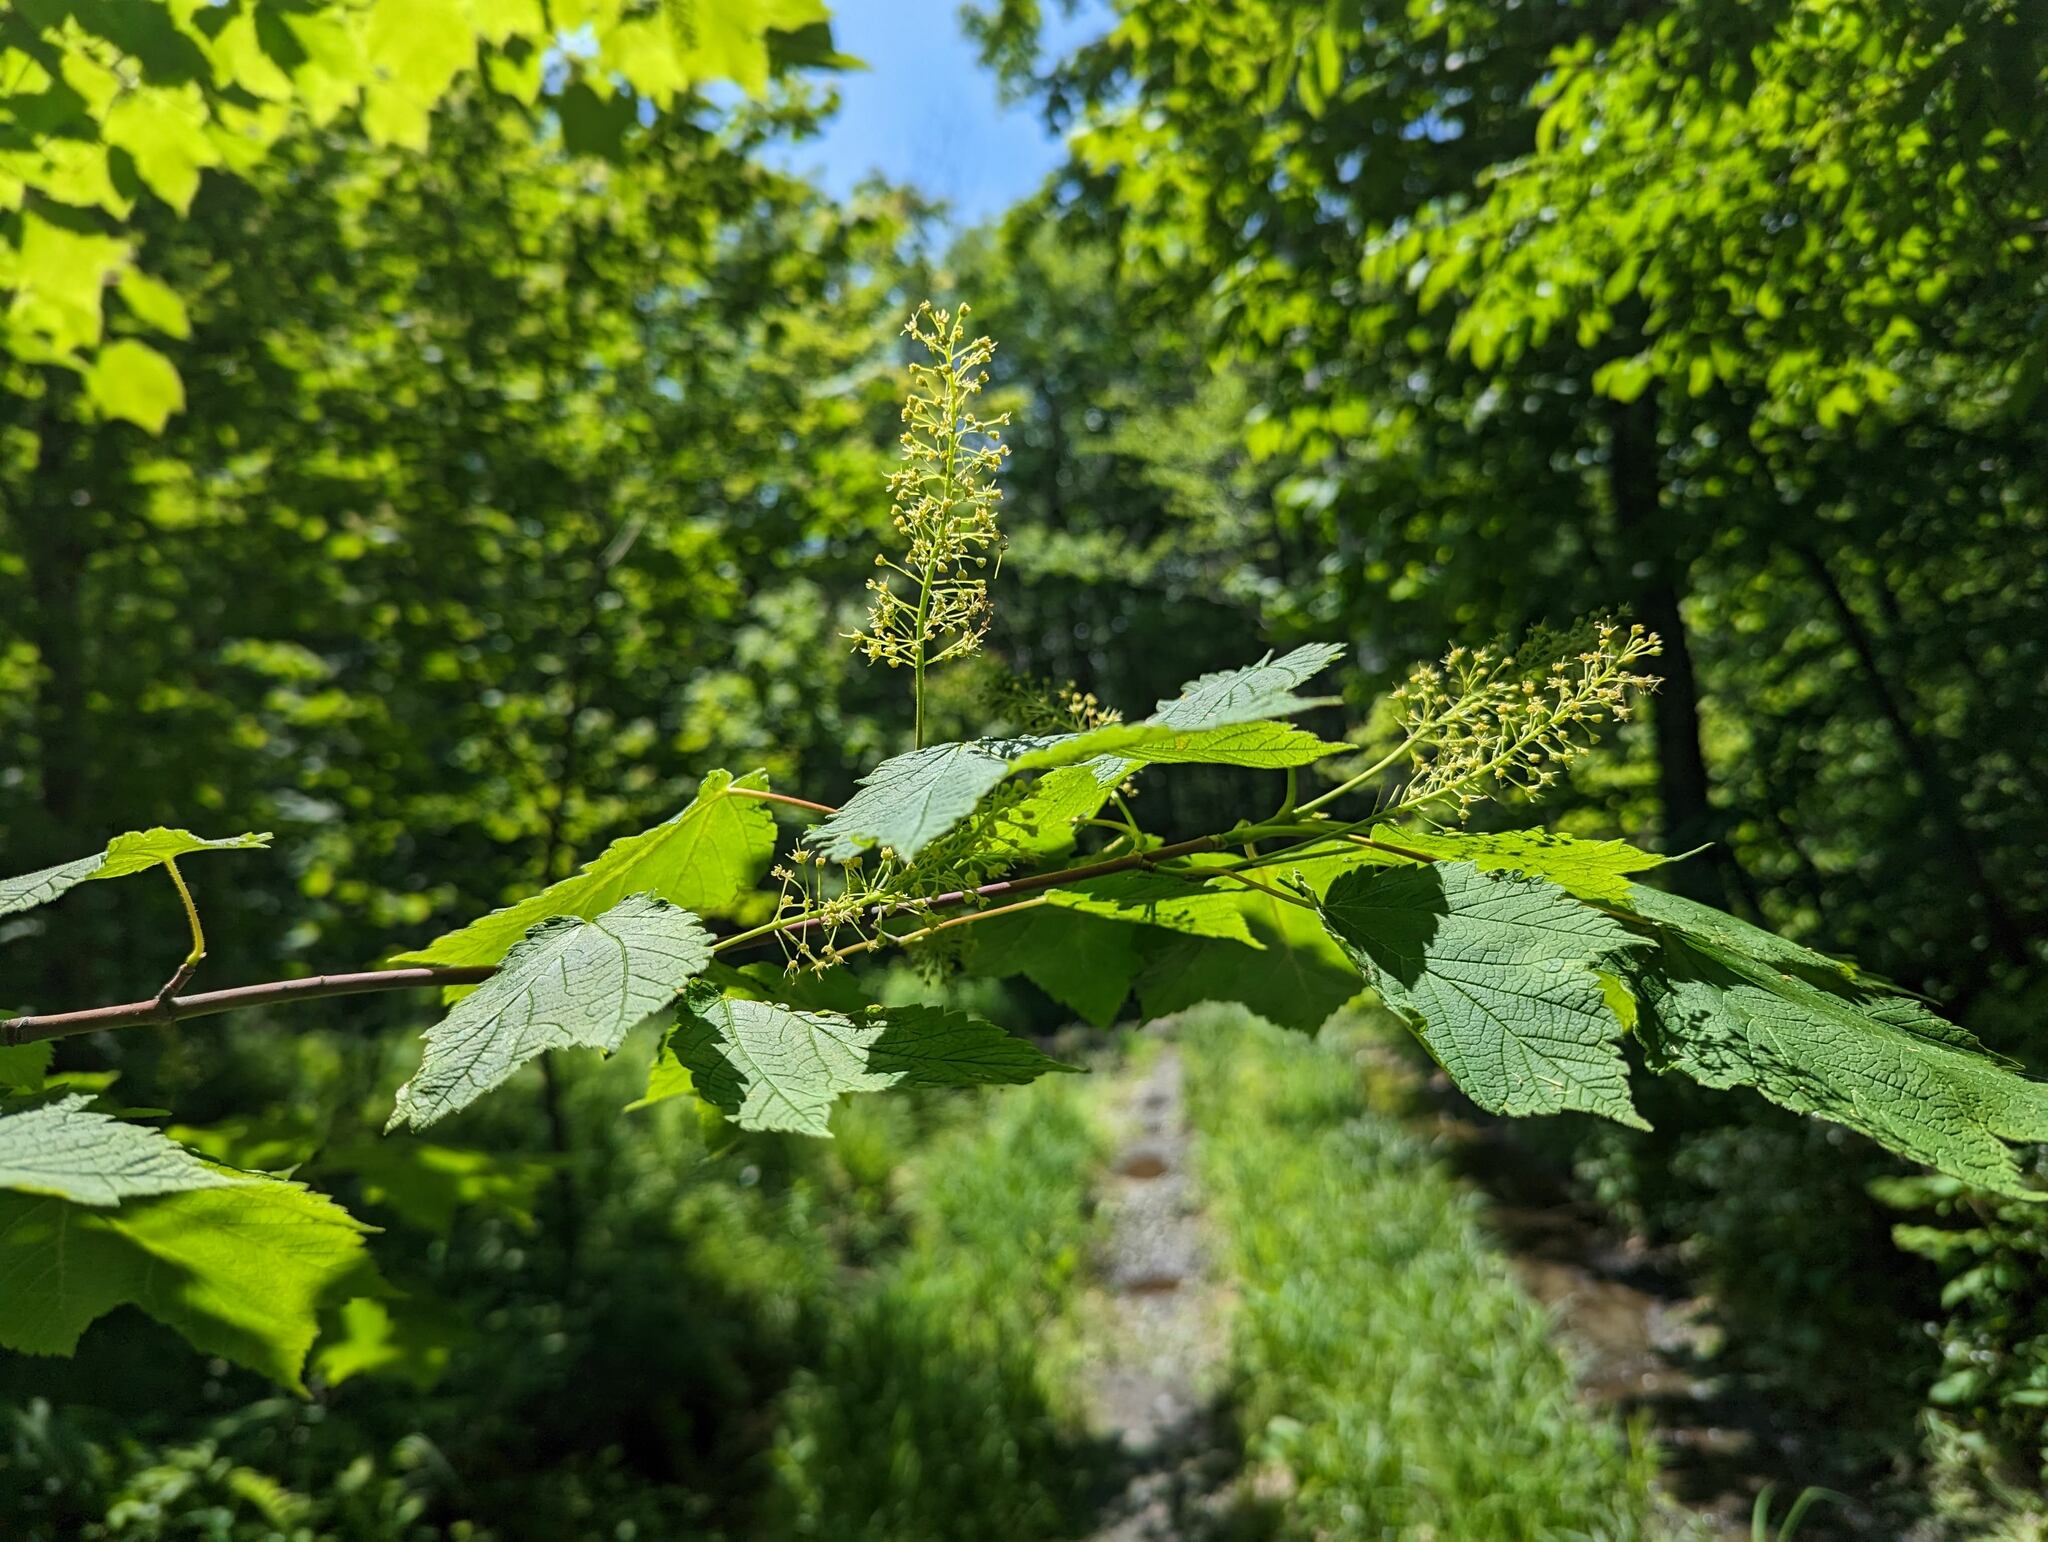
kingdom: Plantae
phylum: Tracheophyta
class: Magnoliopsida
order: Sapindales
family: Sapindaceae
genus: Acer
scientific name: Acer spicatum
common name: Mountain maple
